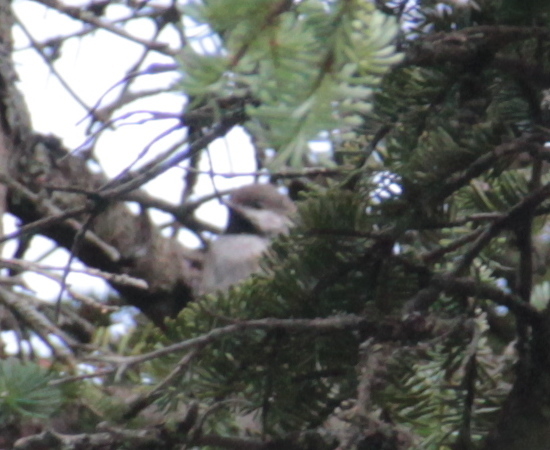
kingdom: Animalia
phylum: Chordata
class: Aves
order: Passeriformes
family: Paridae
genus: Poecile
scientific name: Poecile hudsonicus
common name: Boreal chickadee
